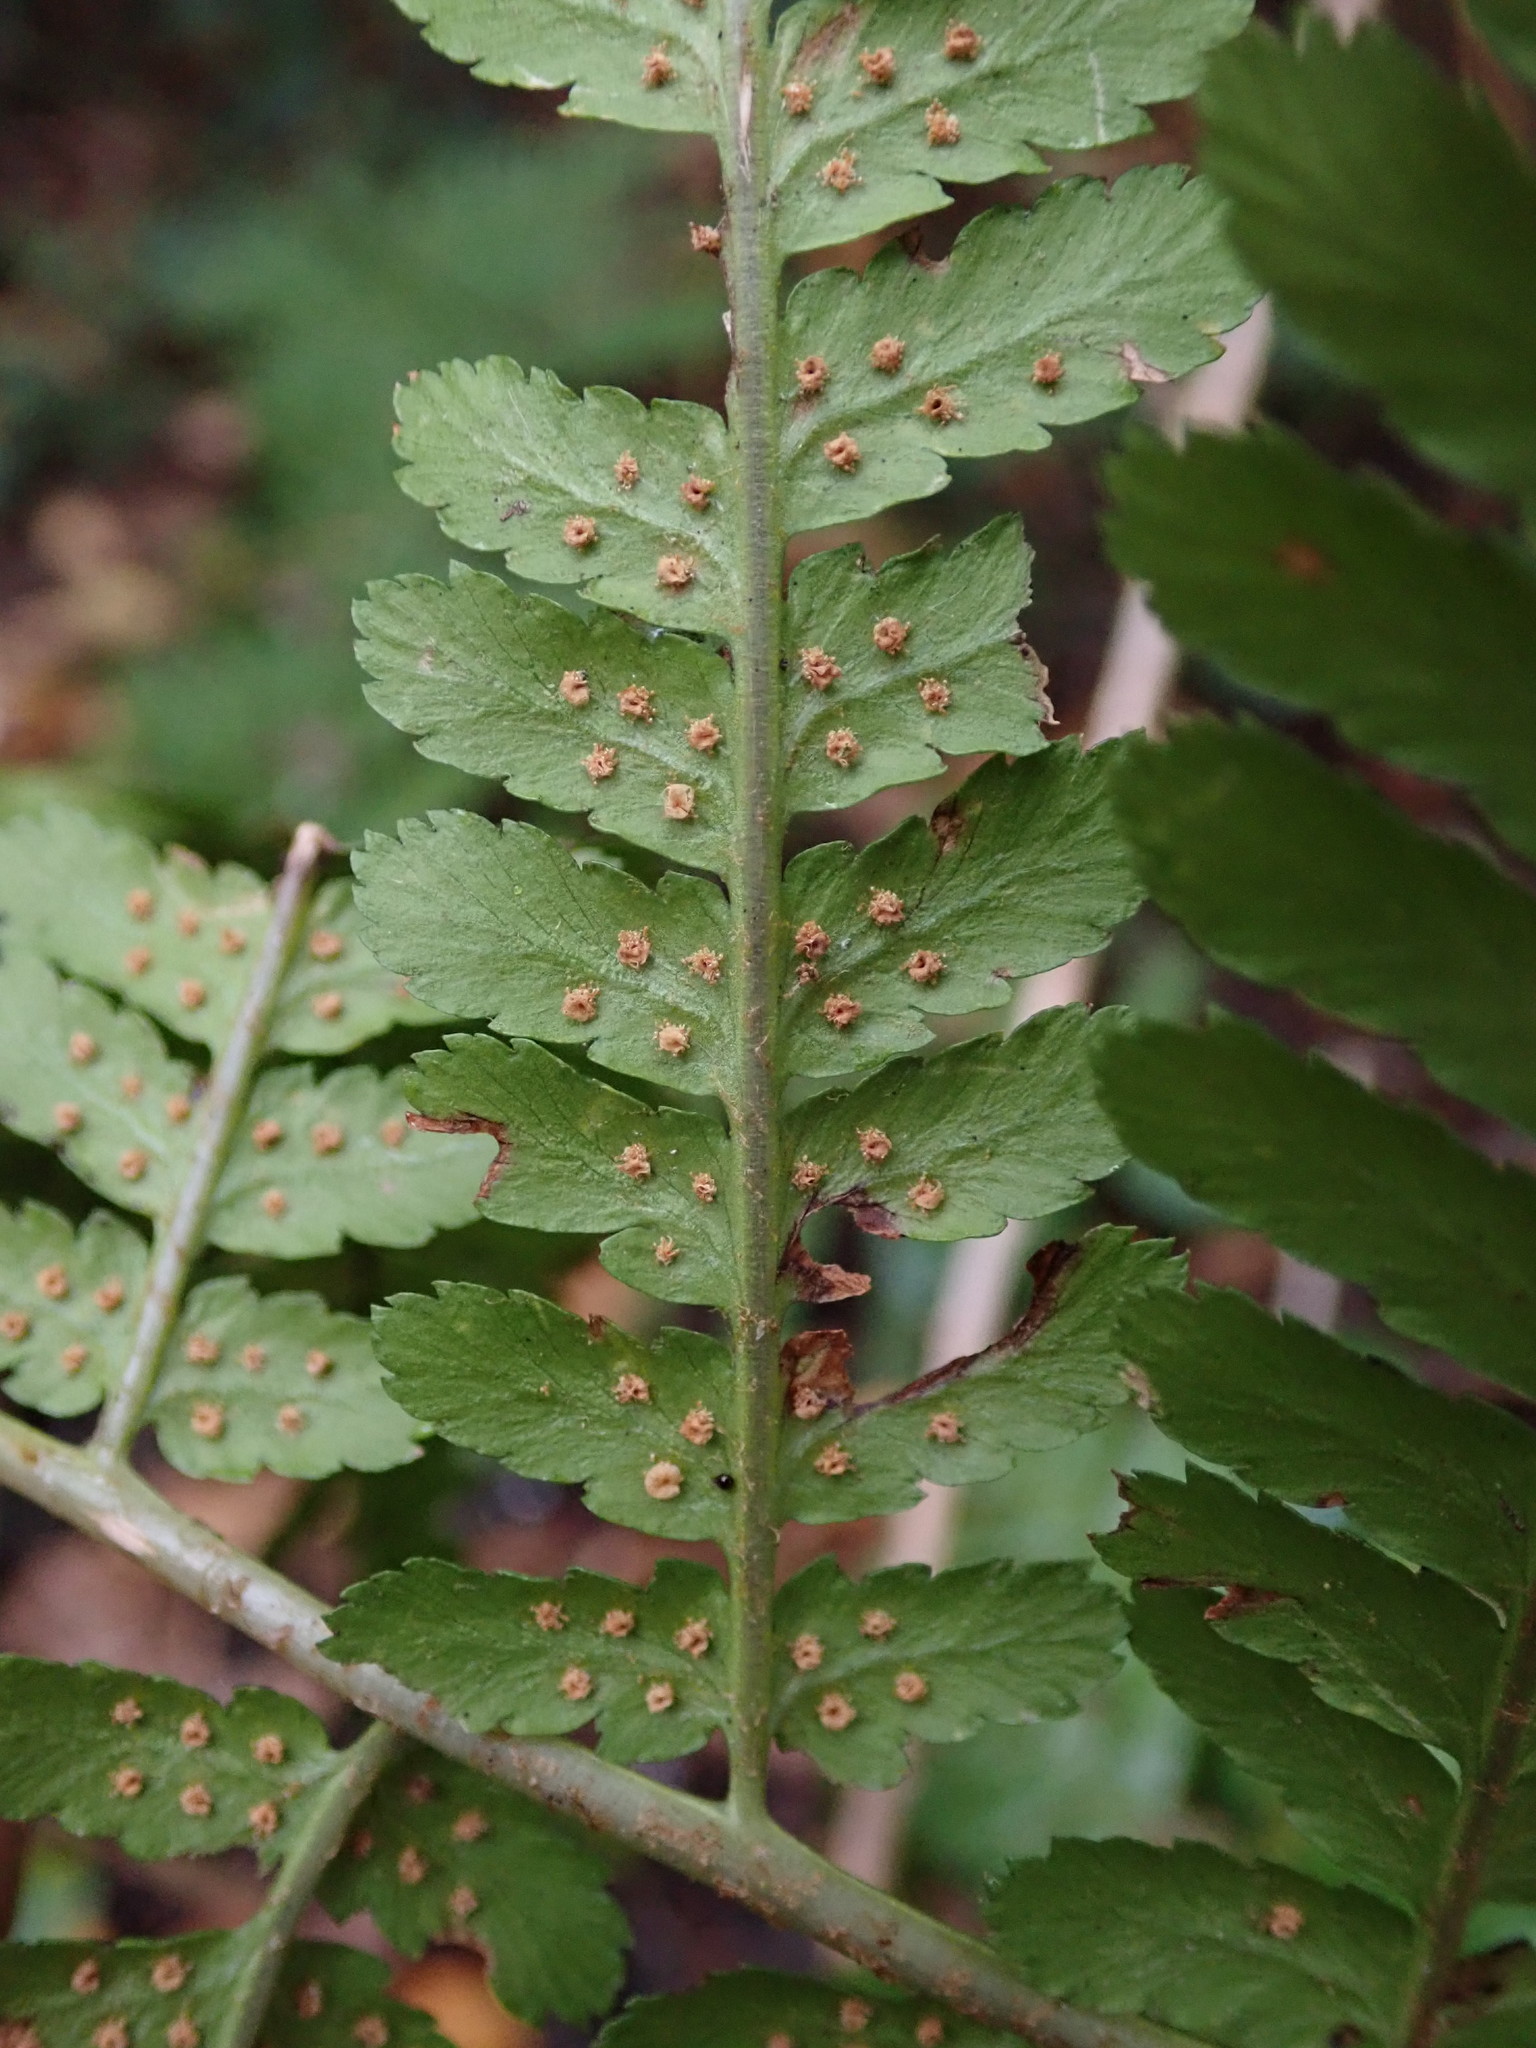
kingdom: Plantae
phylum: Tracheophyta
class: Polypodiopsida
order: Polypodiales
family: Dryopteridaceae
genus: Dryopteris
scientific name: Dryopteris filix-mas
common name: Male fern
